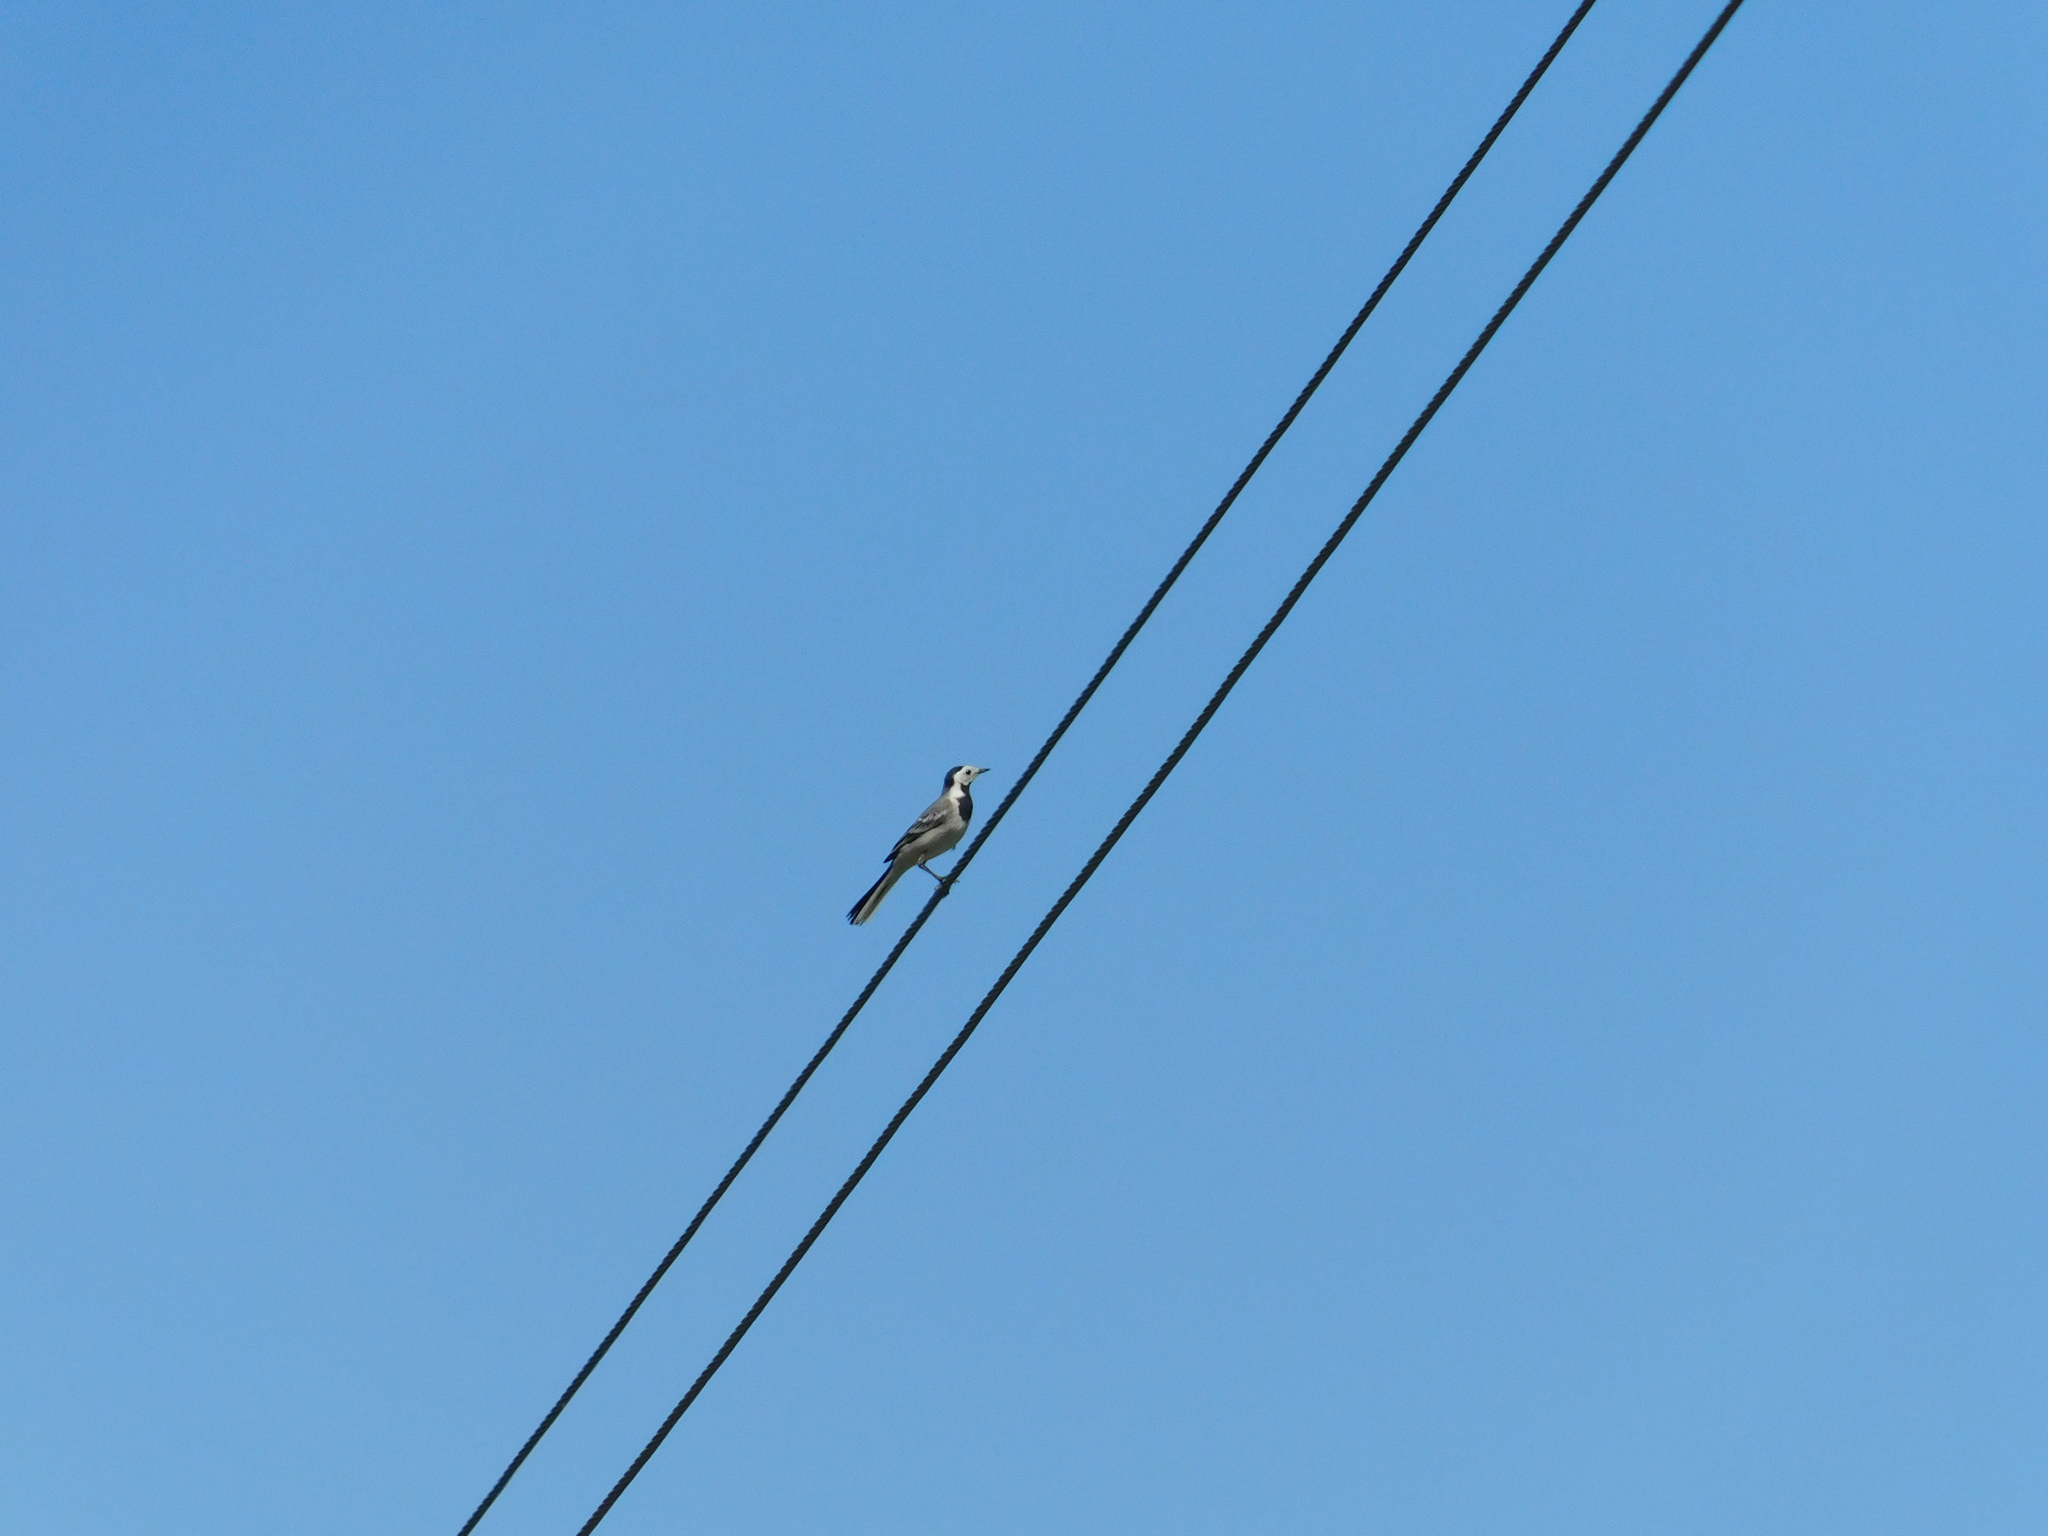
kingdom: Animalia
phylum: Chordata
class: Aves
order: Passeriformes
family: Motacillidae
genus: Motacilla
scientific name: Motacilla alba
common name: White wagtail
